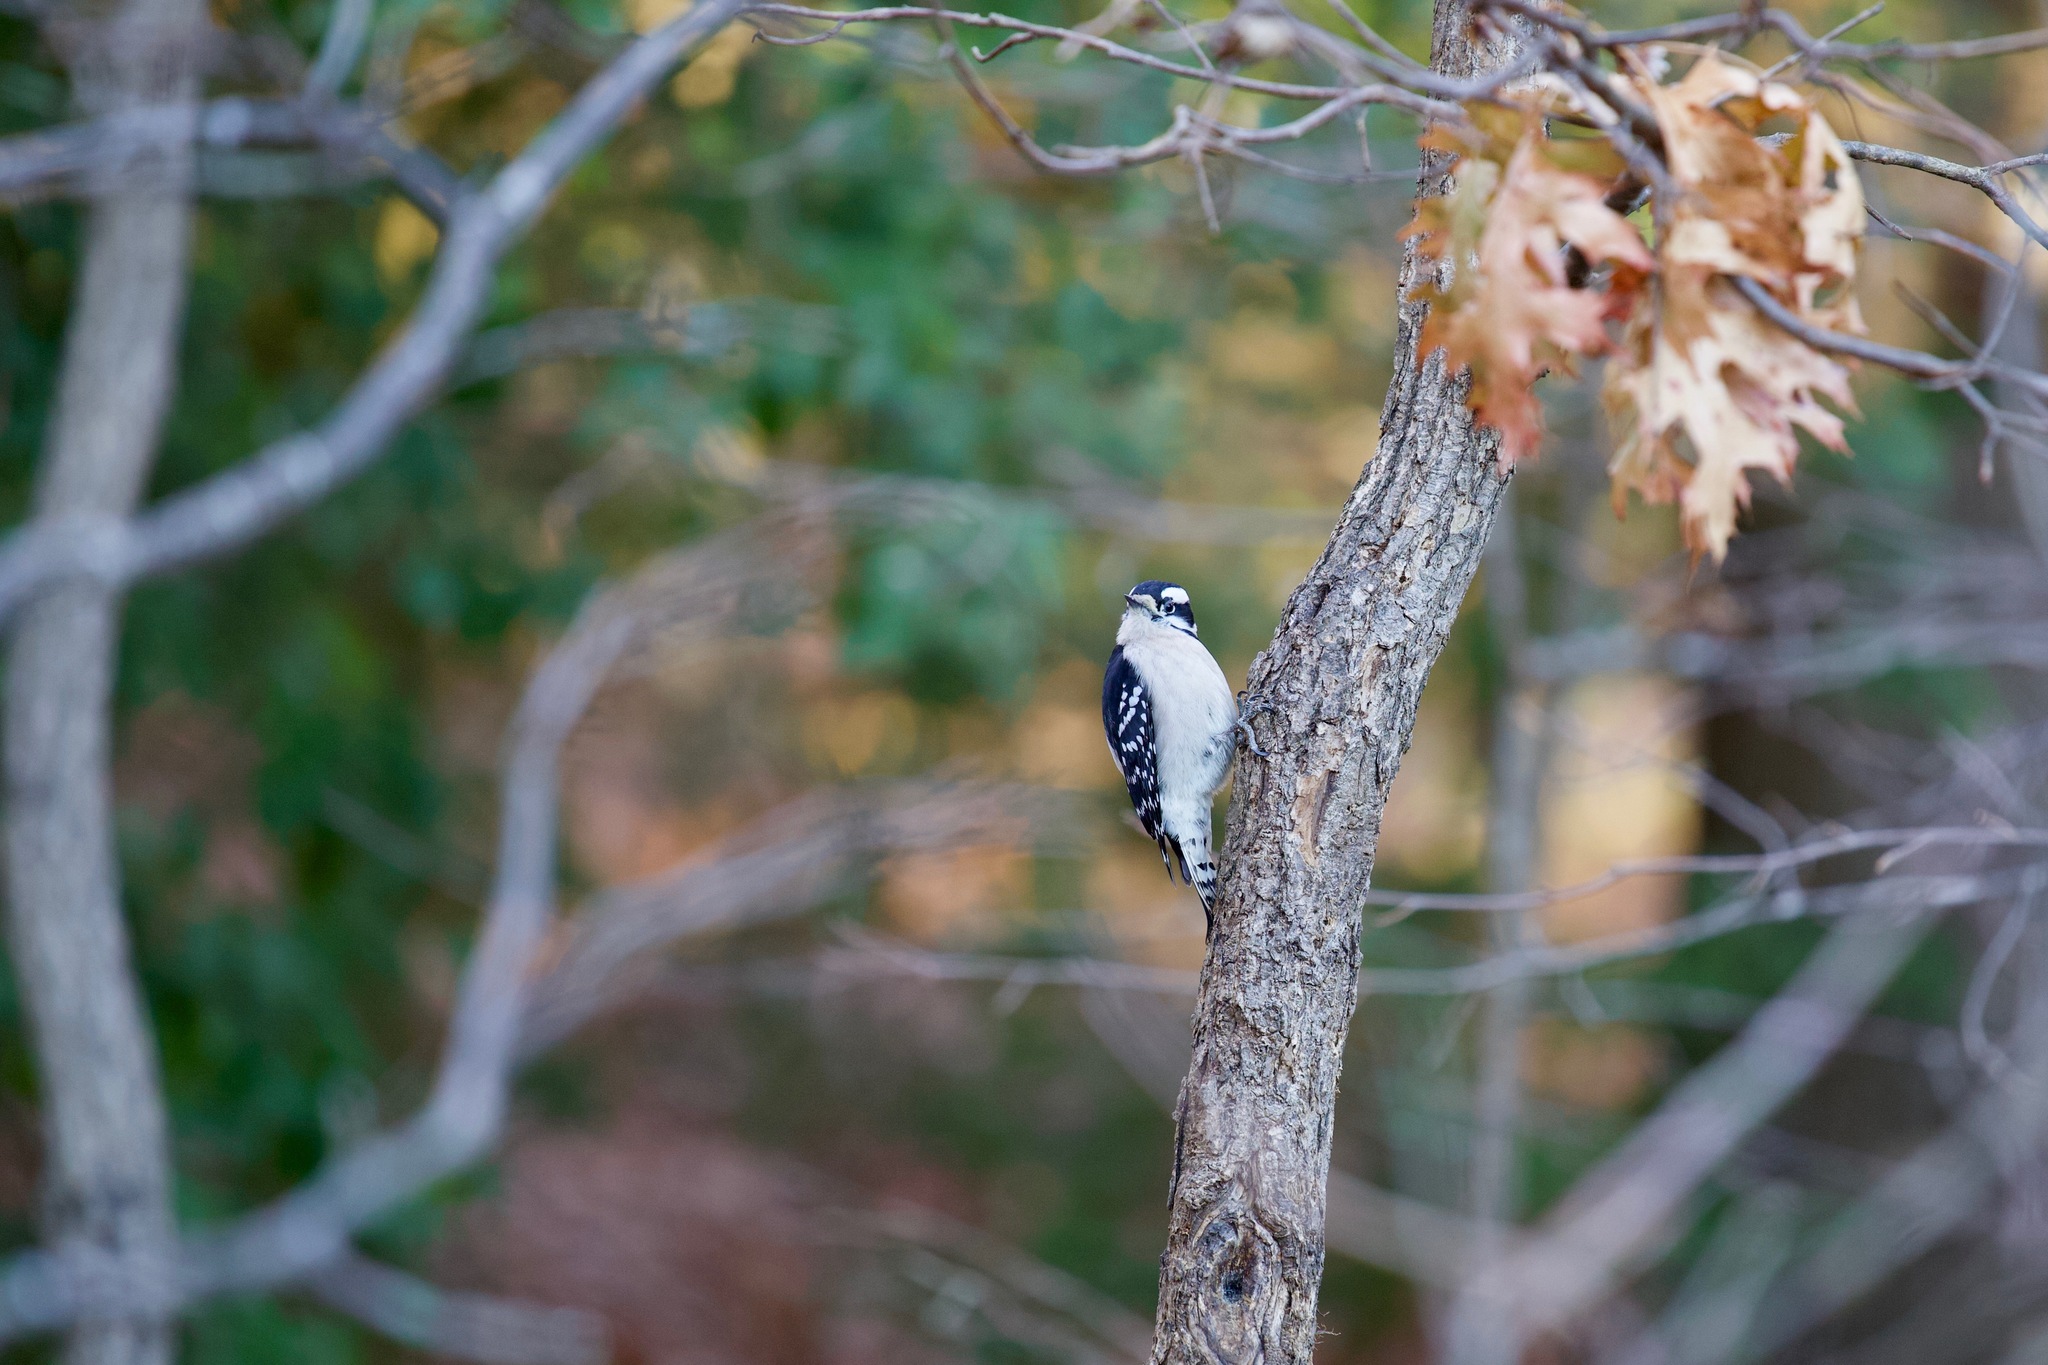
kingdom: Animalia
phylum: Chordata
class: Aves
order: Piciformes
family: Picidae
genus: Dryobates
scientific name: Dryobates pubescens
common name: Downy woodpecker
